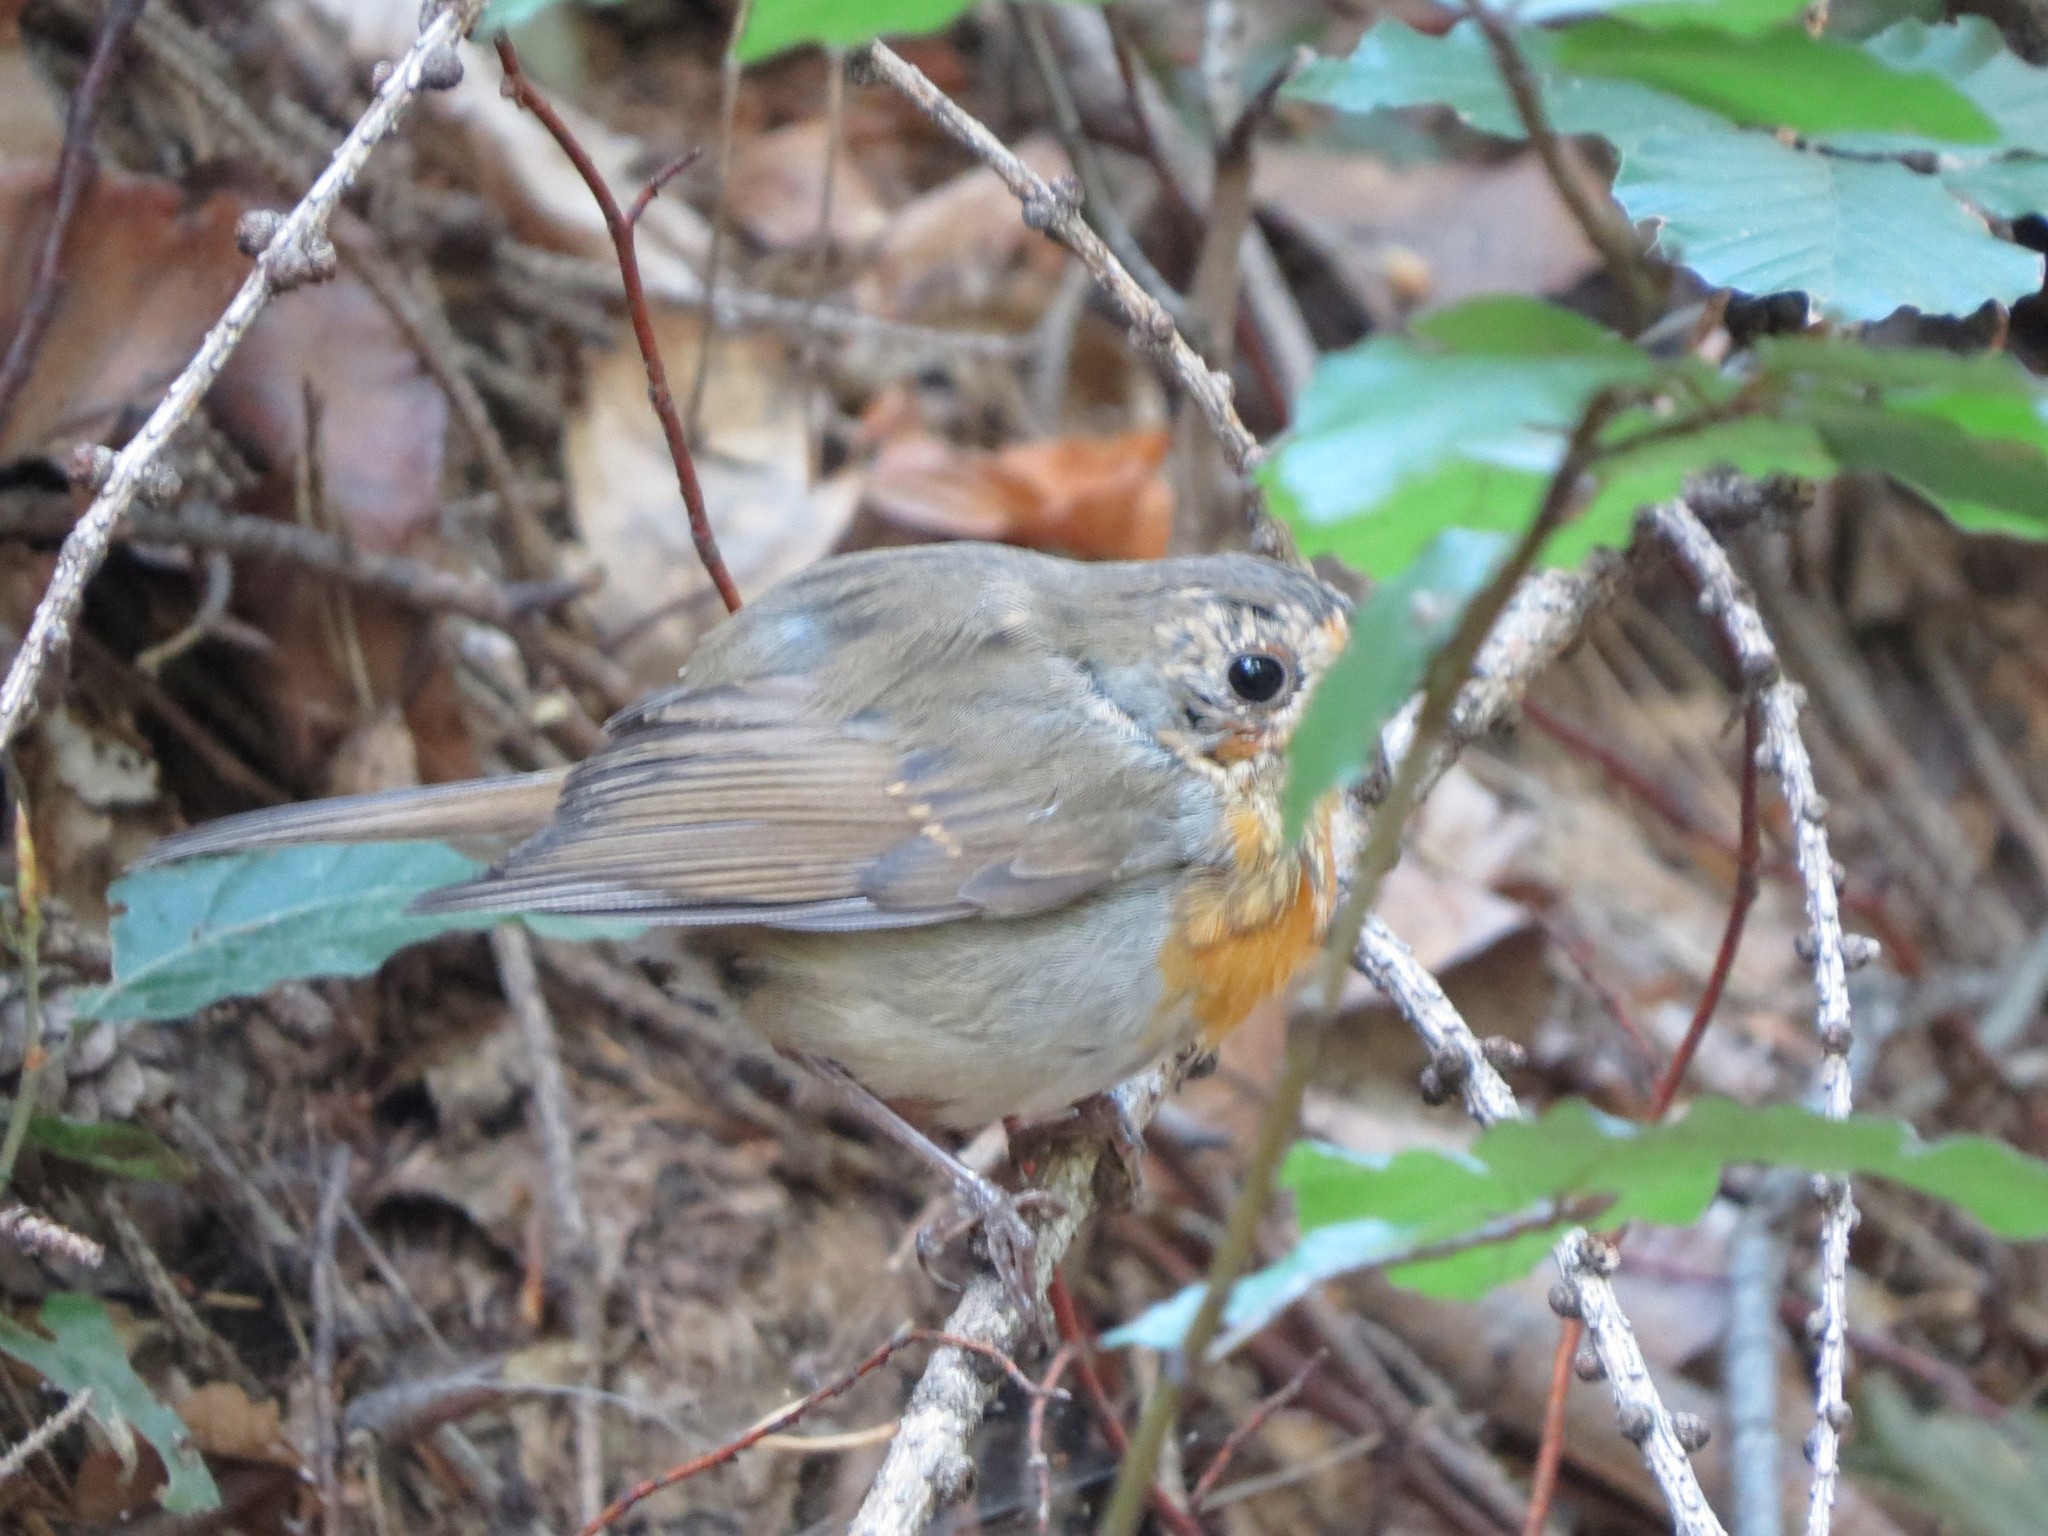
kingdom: Animalia
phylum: Chordata
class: Aves
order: Passeriformes
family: Muscicapidae
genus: Erithacus
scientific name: Erithacus rubecula
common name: European robin
